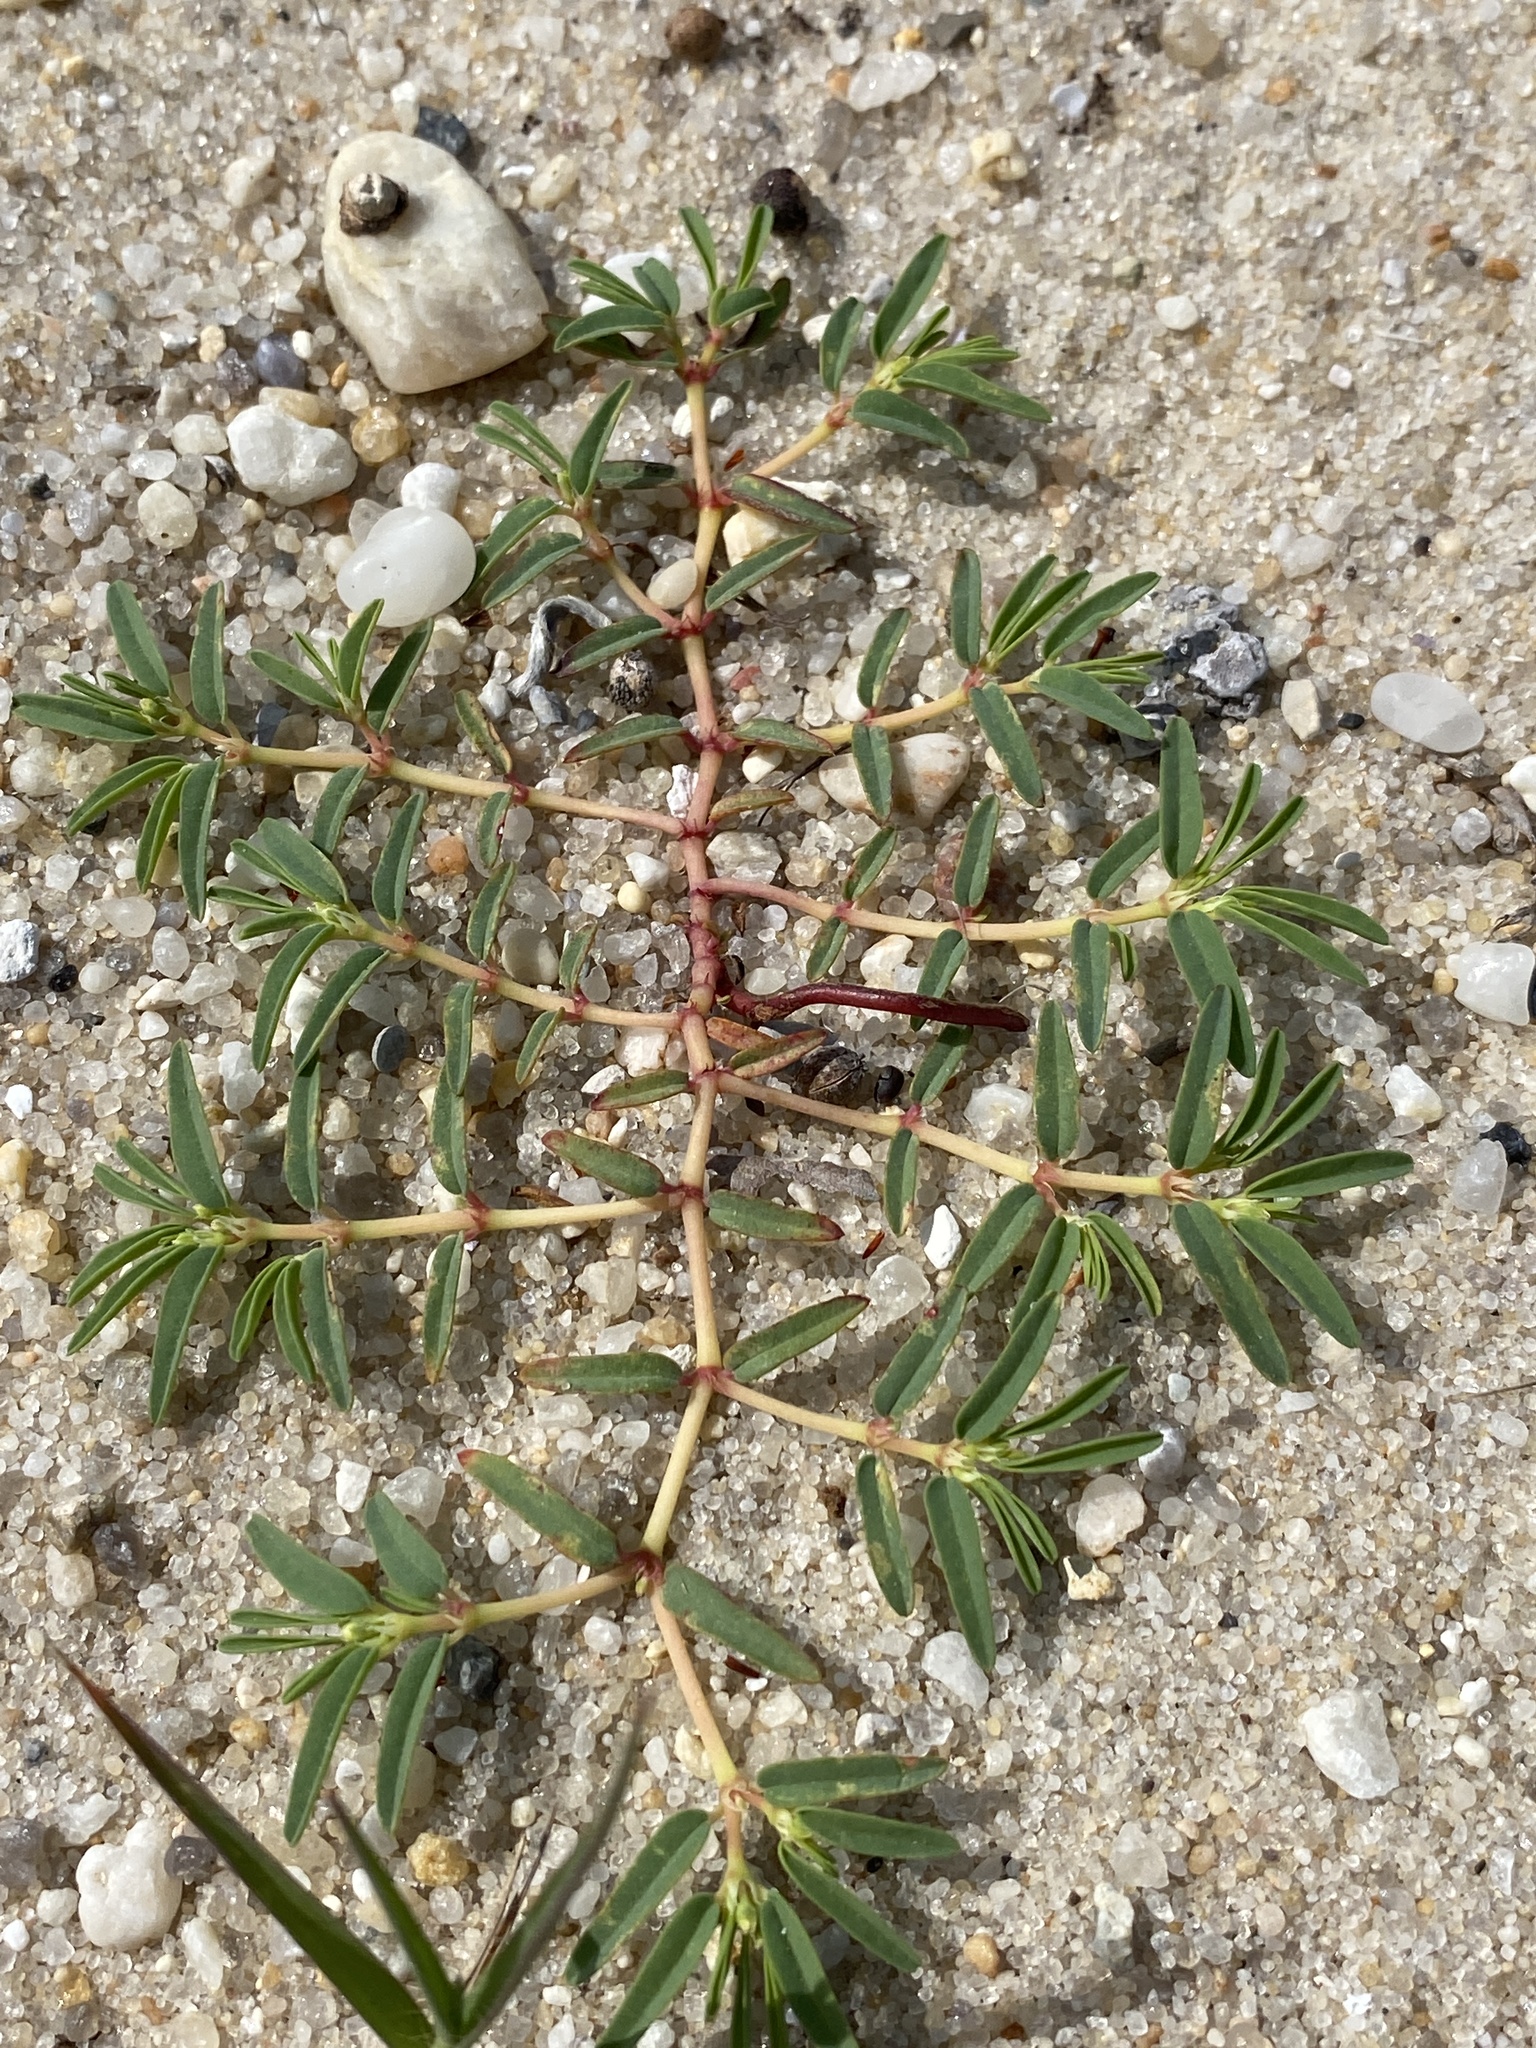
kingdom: Plantae
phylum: Tracheophyta
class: Magnoliopsida
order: Malpighiales
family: Euphorbiaceae
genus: Euphorbia
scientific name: Euphorbia polygonifolia
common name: Knotweed spurge
